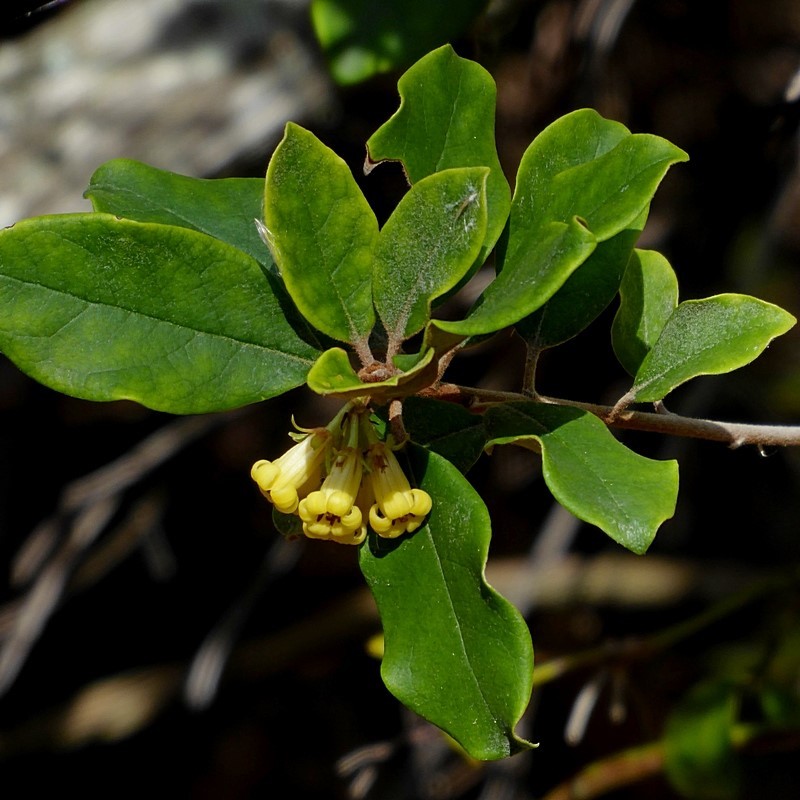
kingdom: Plantae
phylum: Tracheophyta
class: Magnoliopsida
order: Apiales
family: Pittosporaceae
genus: Pittosporum
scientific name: Pittosporum revolutum
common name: Brisbane-laurel
